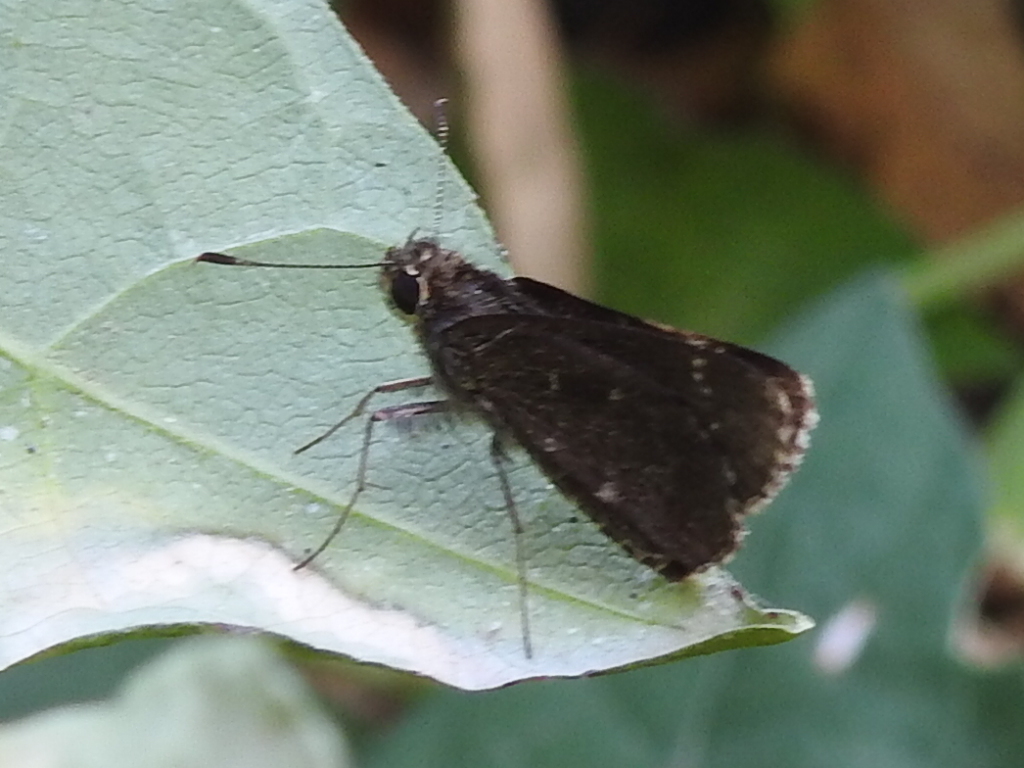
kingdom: Animalia
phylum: Arthropoda
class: Insecta
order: Lepidoptera
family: Hesperiidae
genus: Mastor
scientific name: Mastor celia
